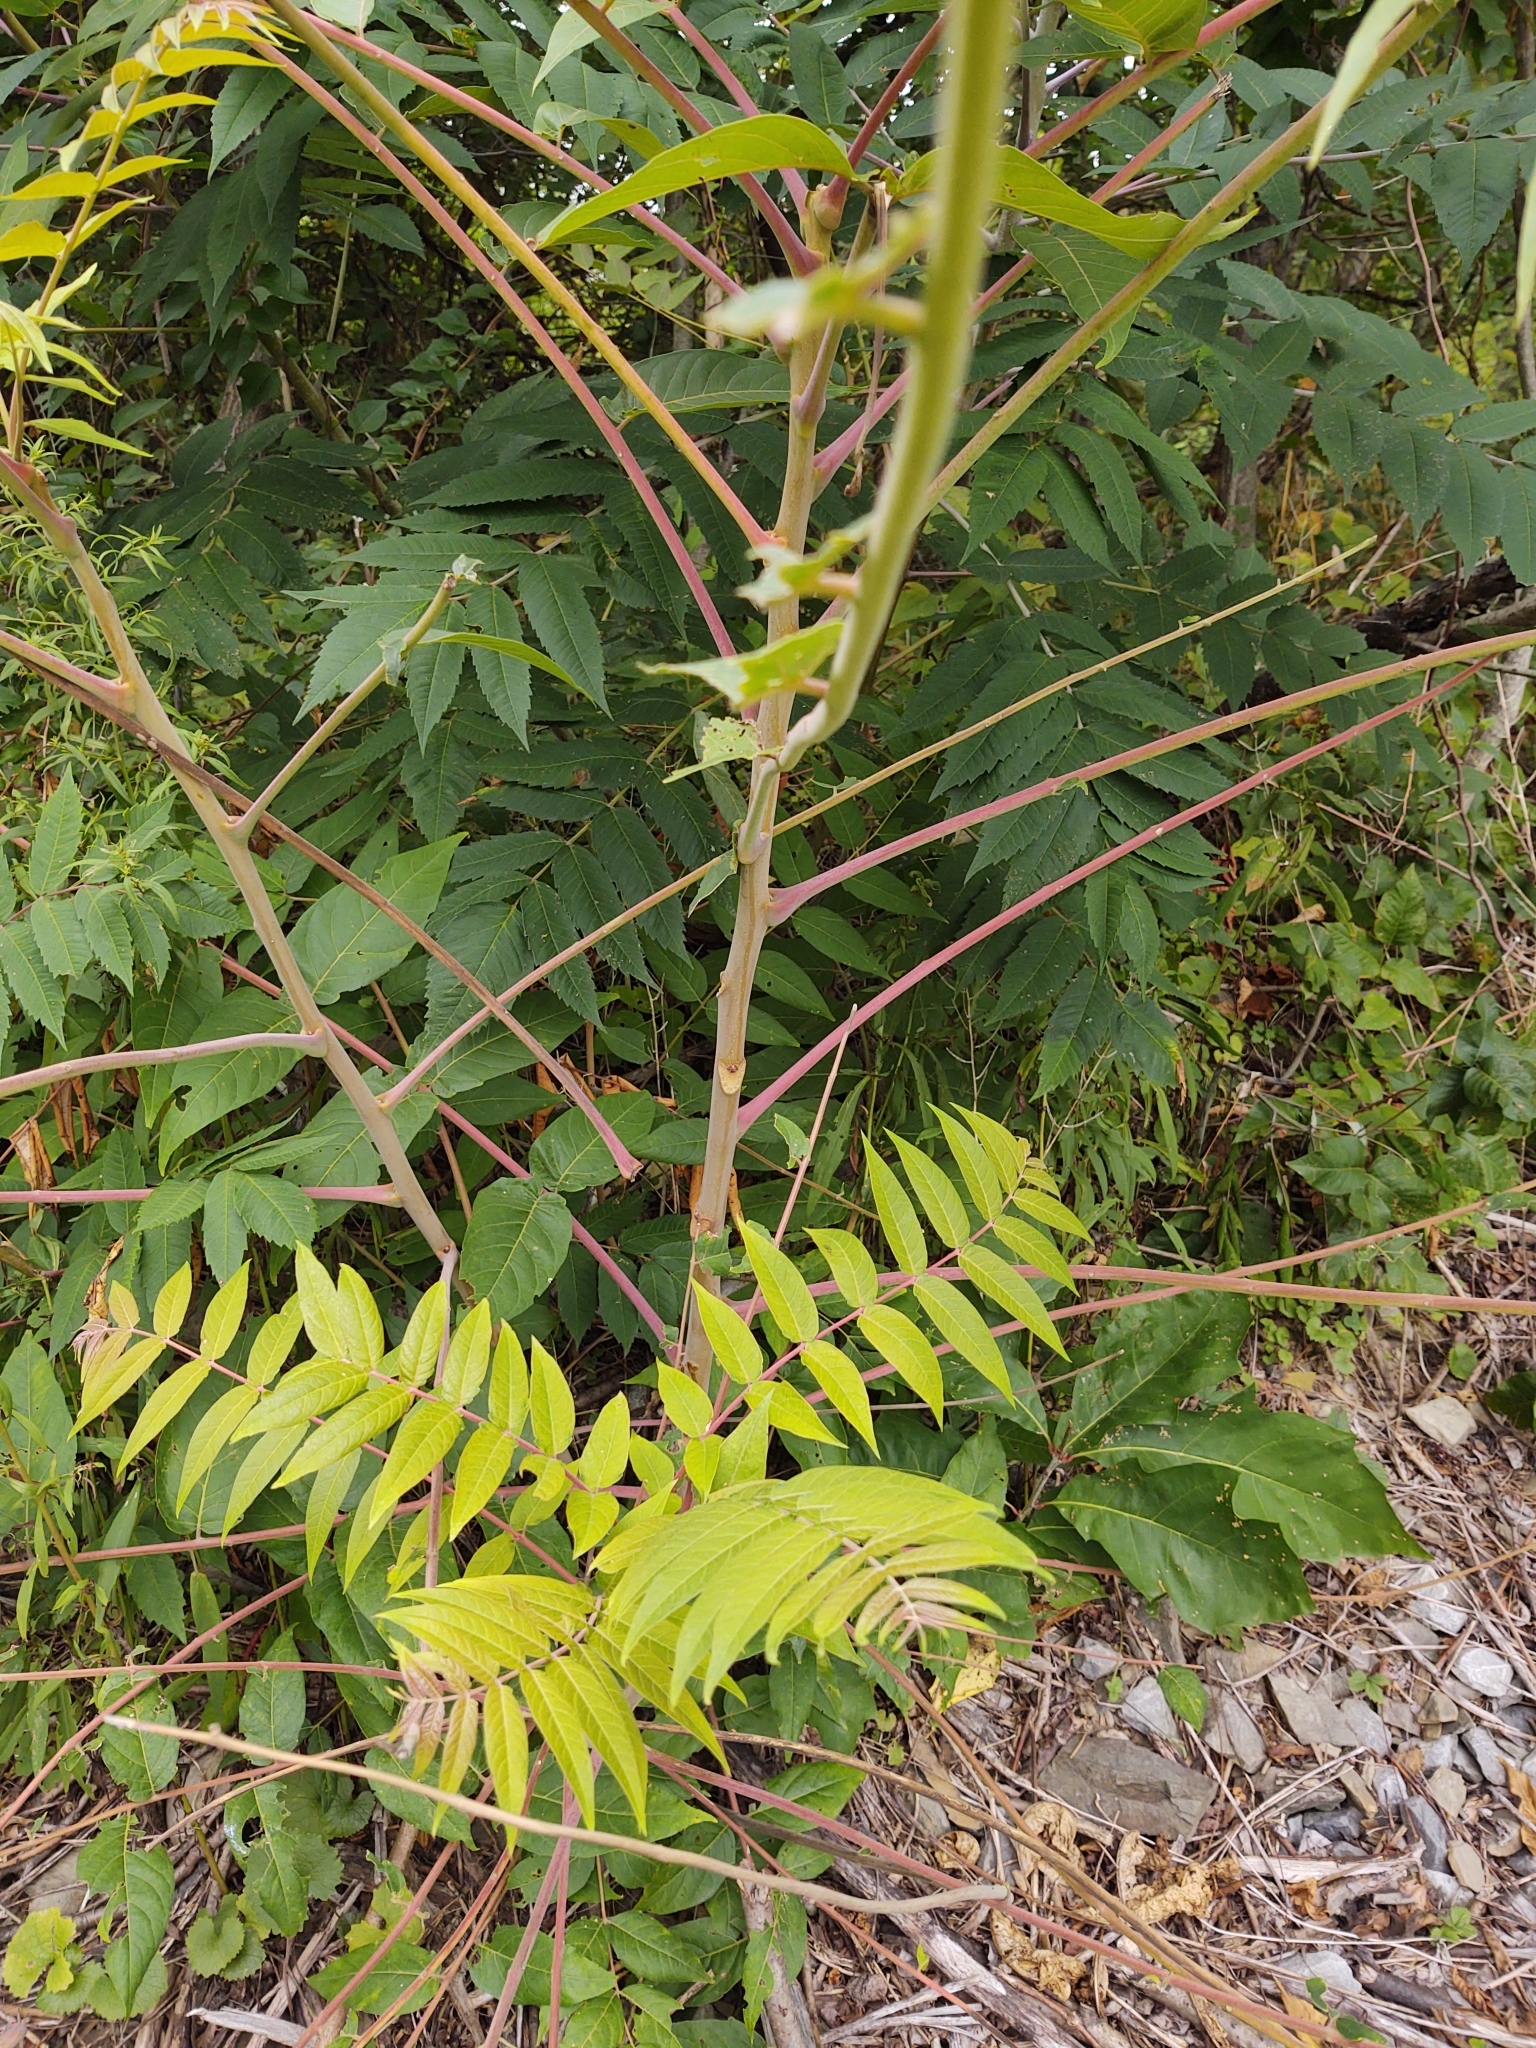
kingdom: Plantae
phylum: Tracheophyta
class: Magnoliopsida
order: Sapindales
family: Simaroubaceae
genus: Ailanthus
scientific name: Ailanthus altissima
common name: Tree-of-heaven
